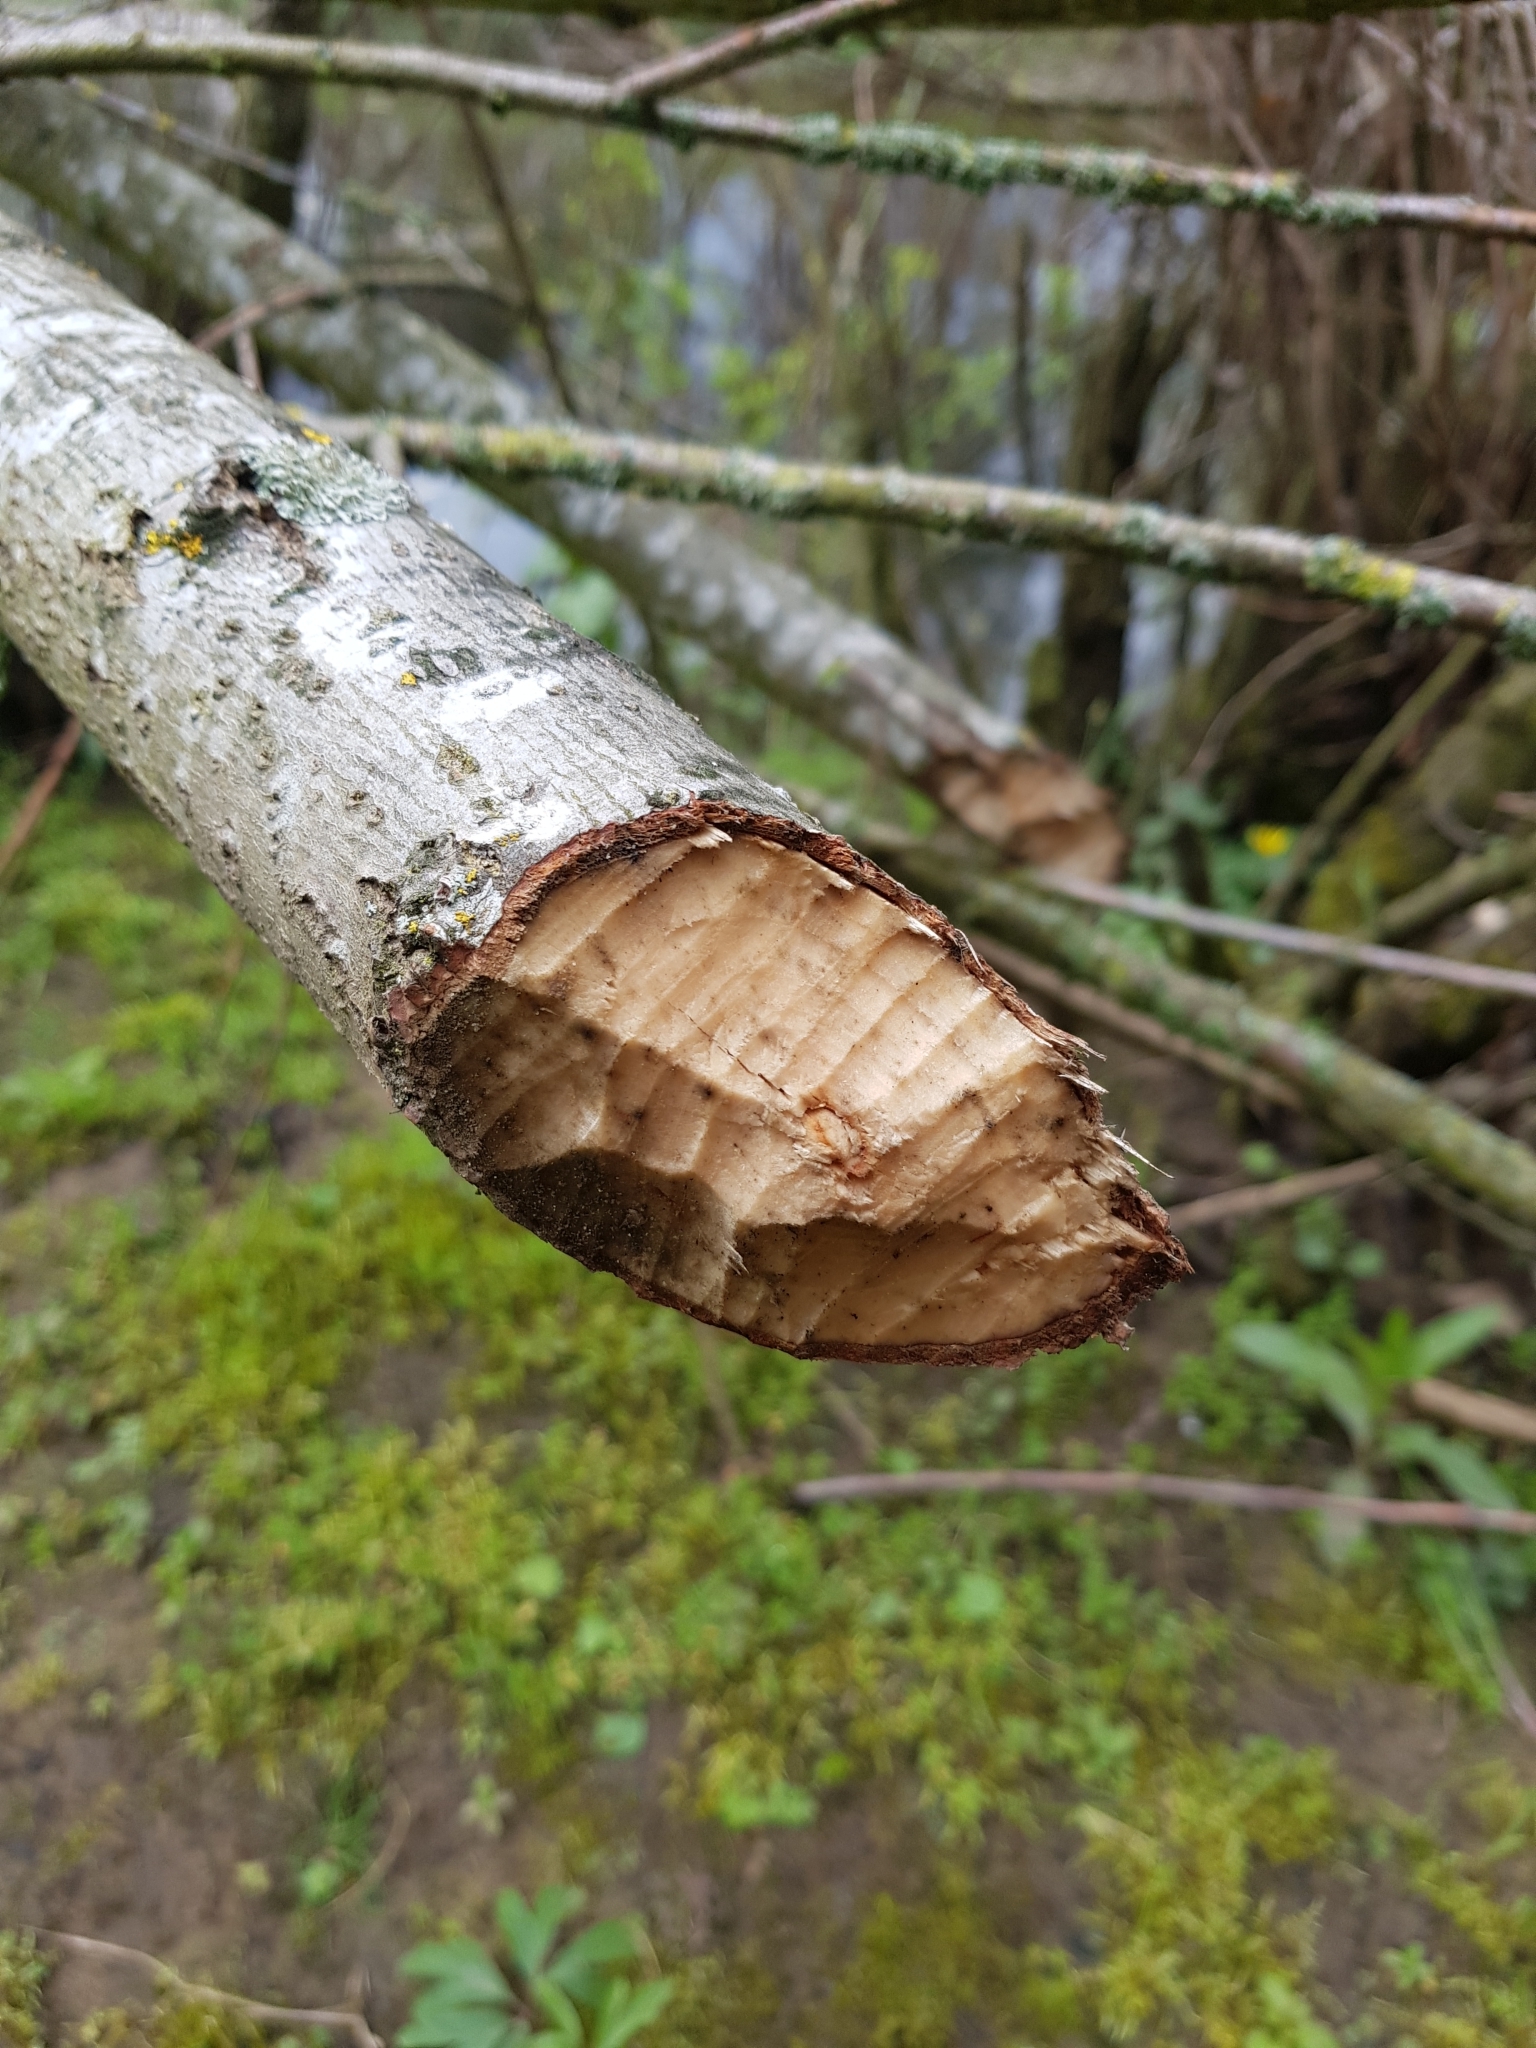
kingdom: Animalia
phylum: Chordata
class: Mammalia
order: Rodentia
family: Castoridae
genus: Castor
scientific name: Castor fiber
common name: Eurasian beaver
